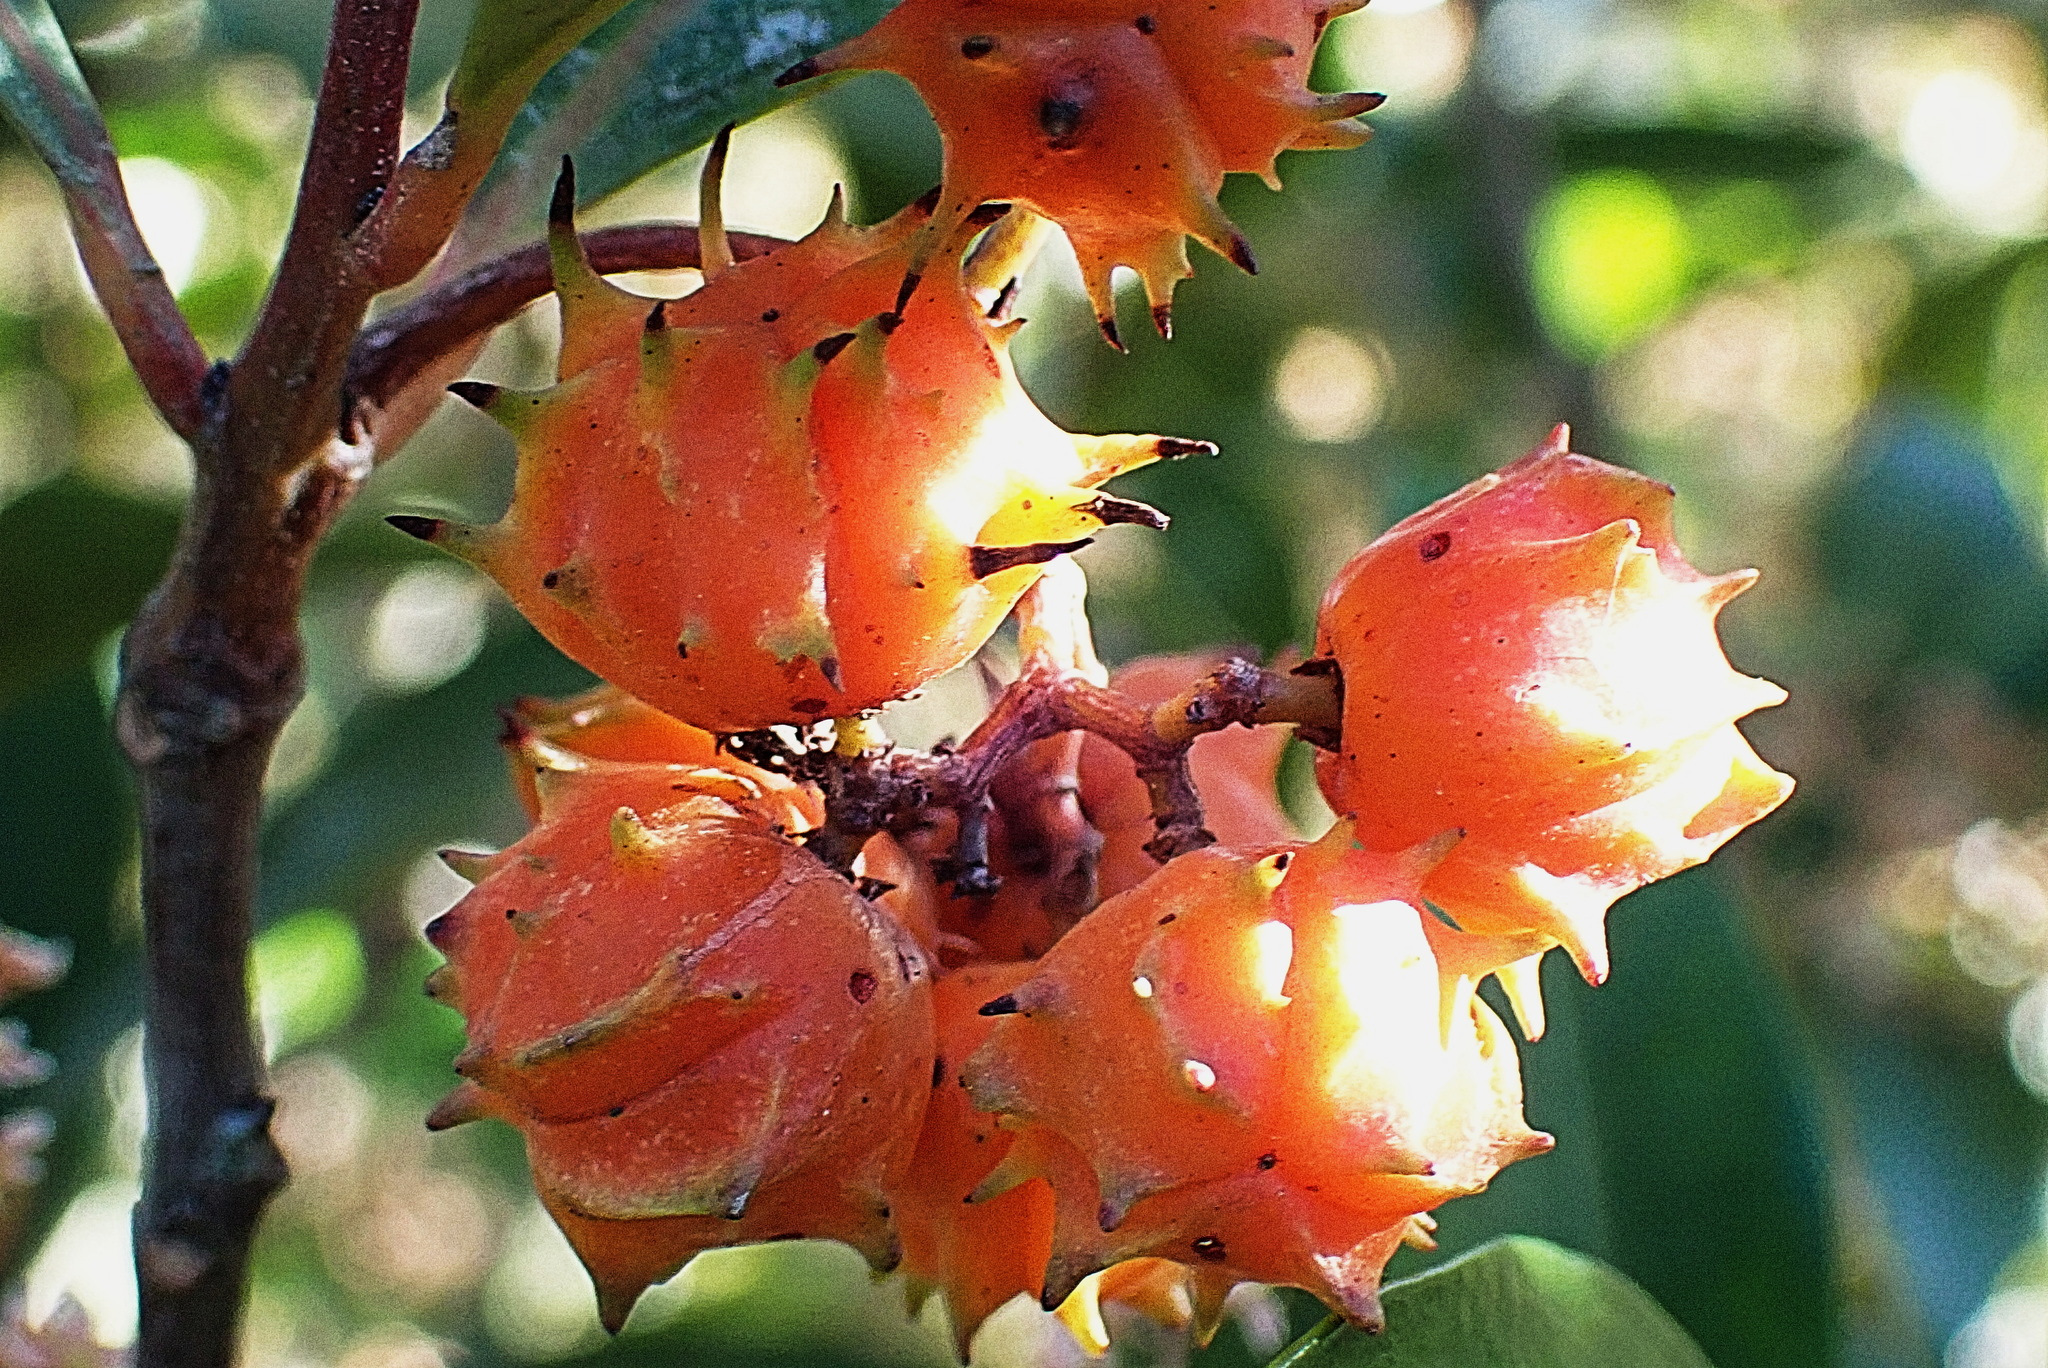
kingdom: Plantae
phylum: Tracheophyta
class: Magnoliopsida
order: Celastrales
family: Celastraceae
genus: Pterocelastrus
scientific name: Pterocelastrus rostratus
